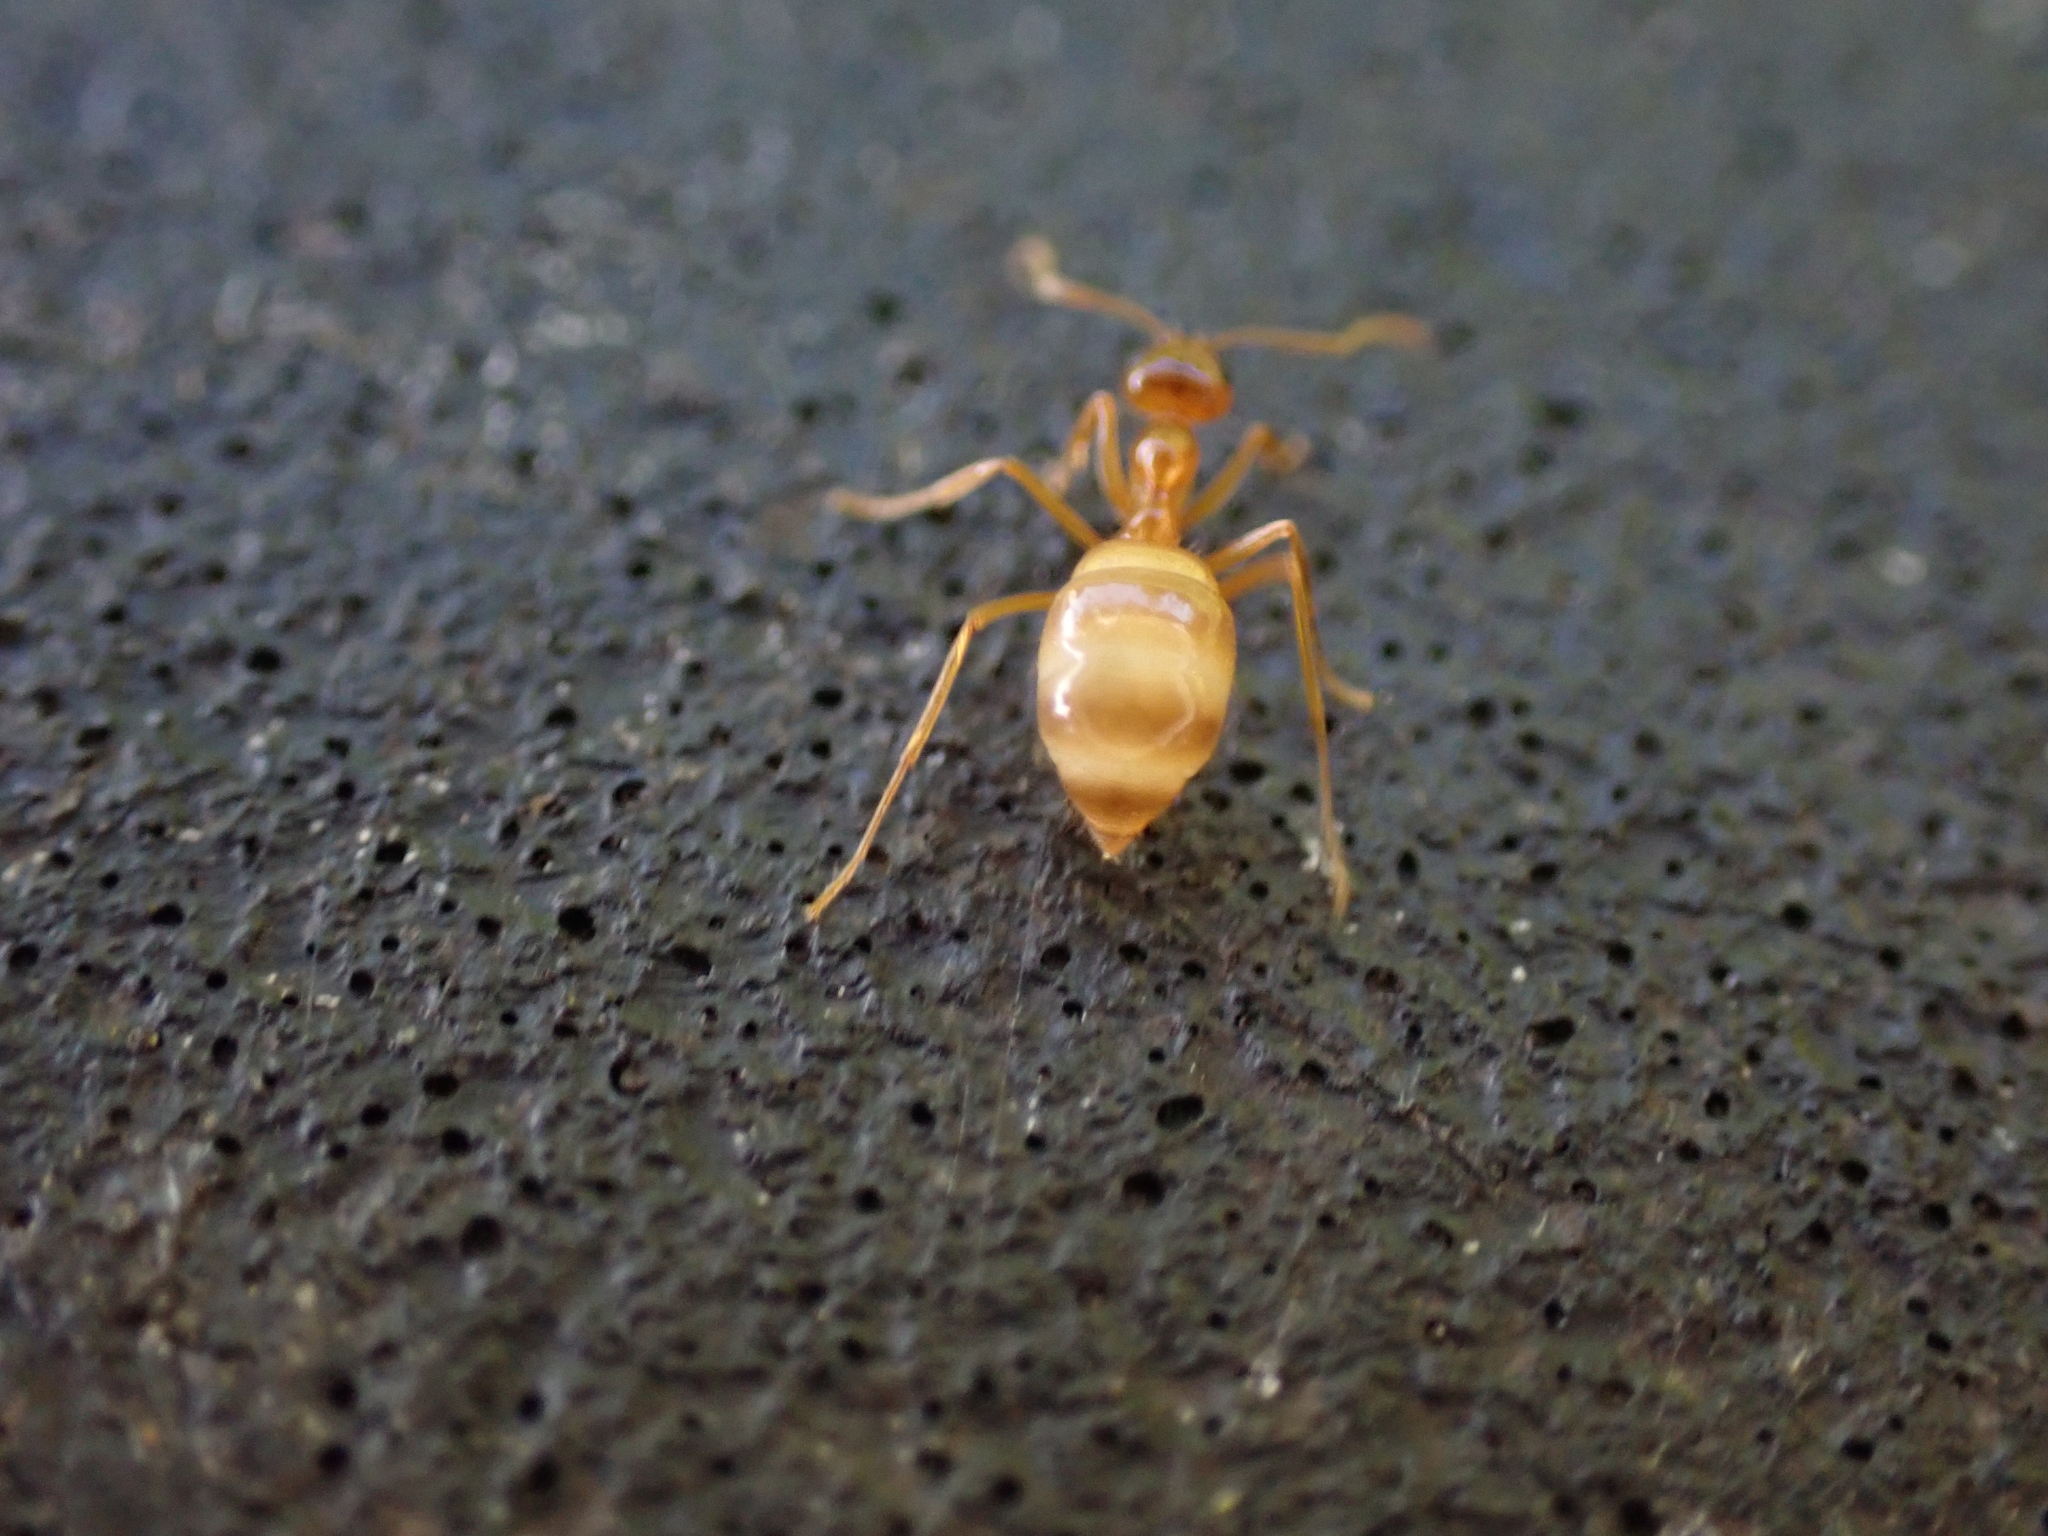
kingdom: Animalia
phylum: Arthropoda
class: Insecta
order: Hymenoptera
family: Formicidae
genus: Prenolepis
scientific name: Prenolepis imparis
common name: Small honey ant
